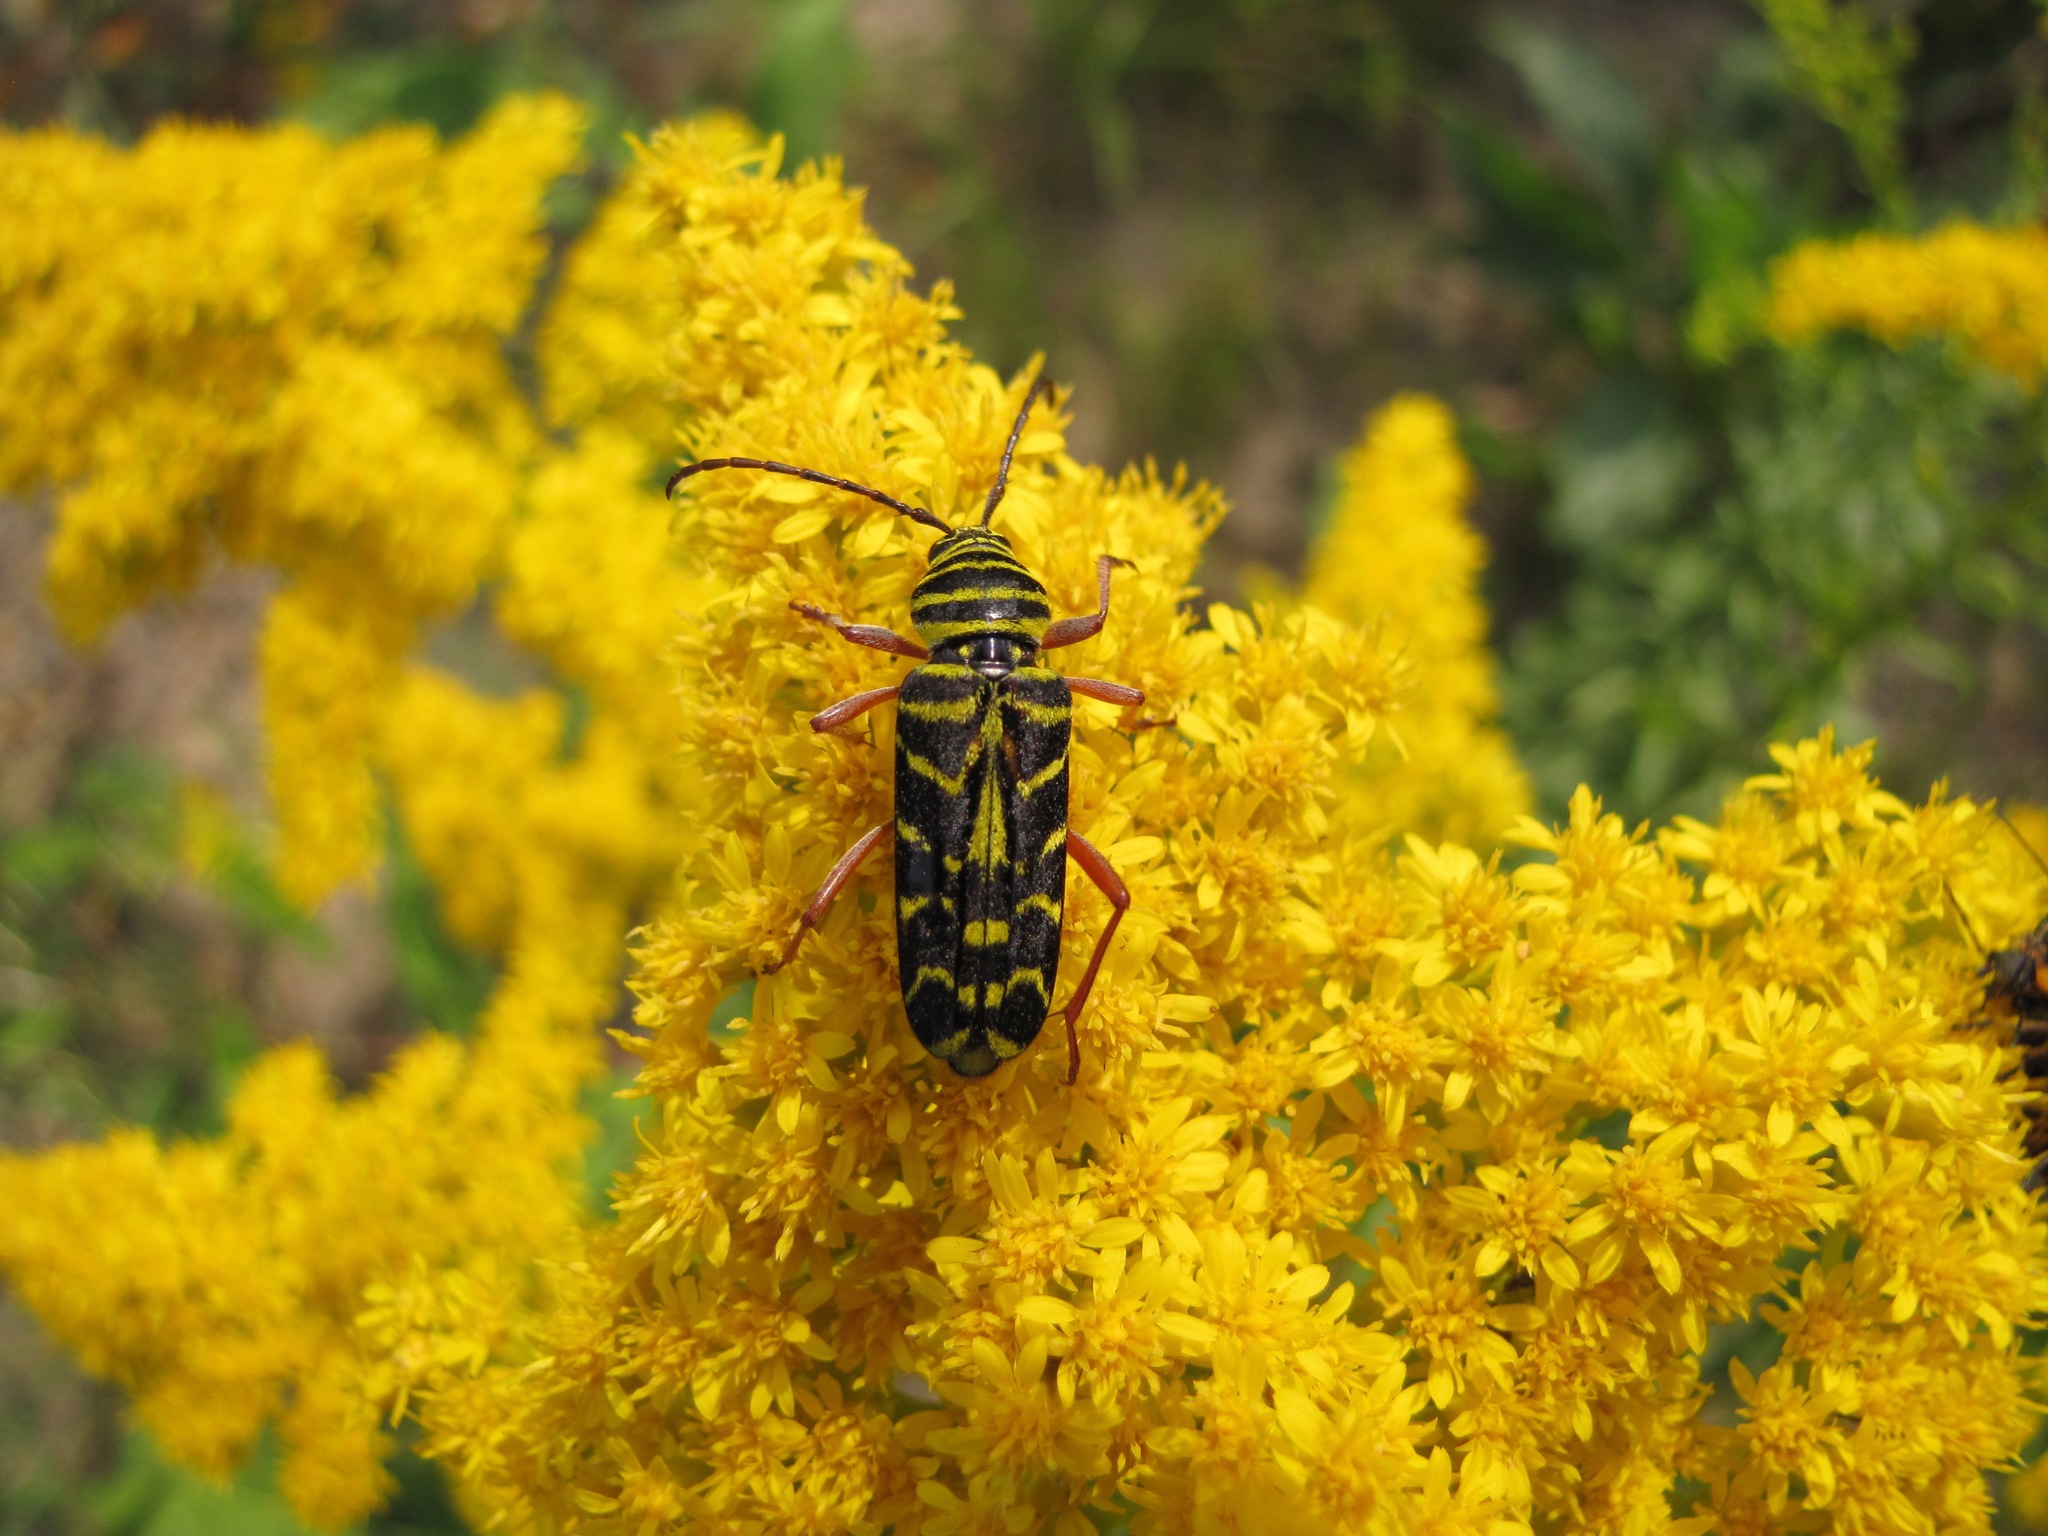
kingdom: Animalia
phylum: Arthropoda
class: Insecta
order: Coleoptera
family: Cerambycidae
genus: Megacyllene
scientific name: Megacyllene robiniae
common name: Locust borer
